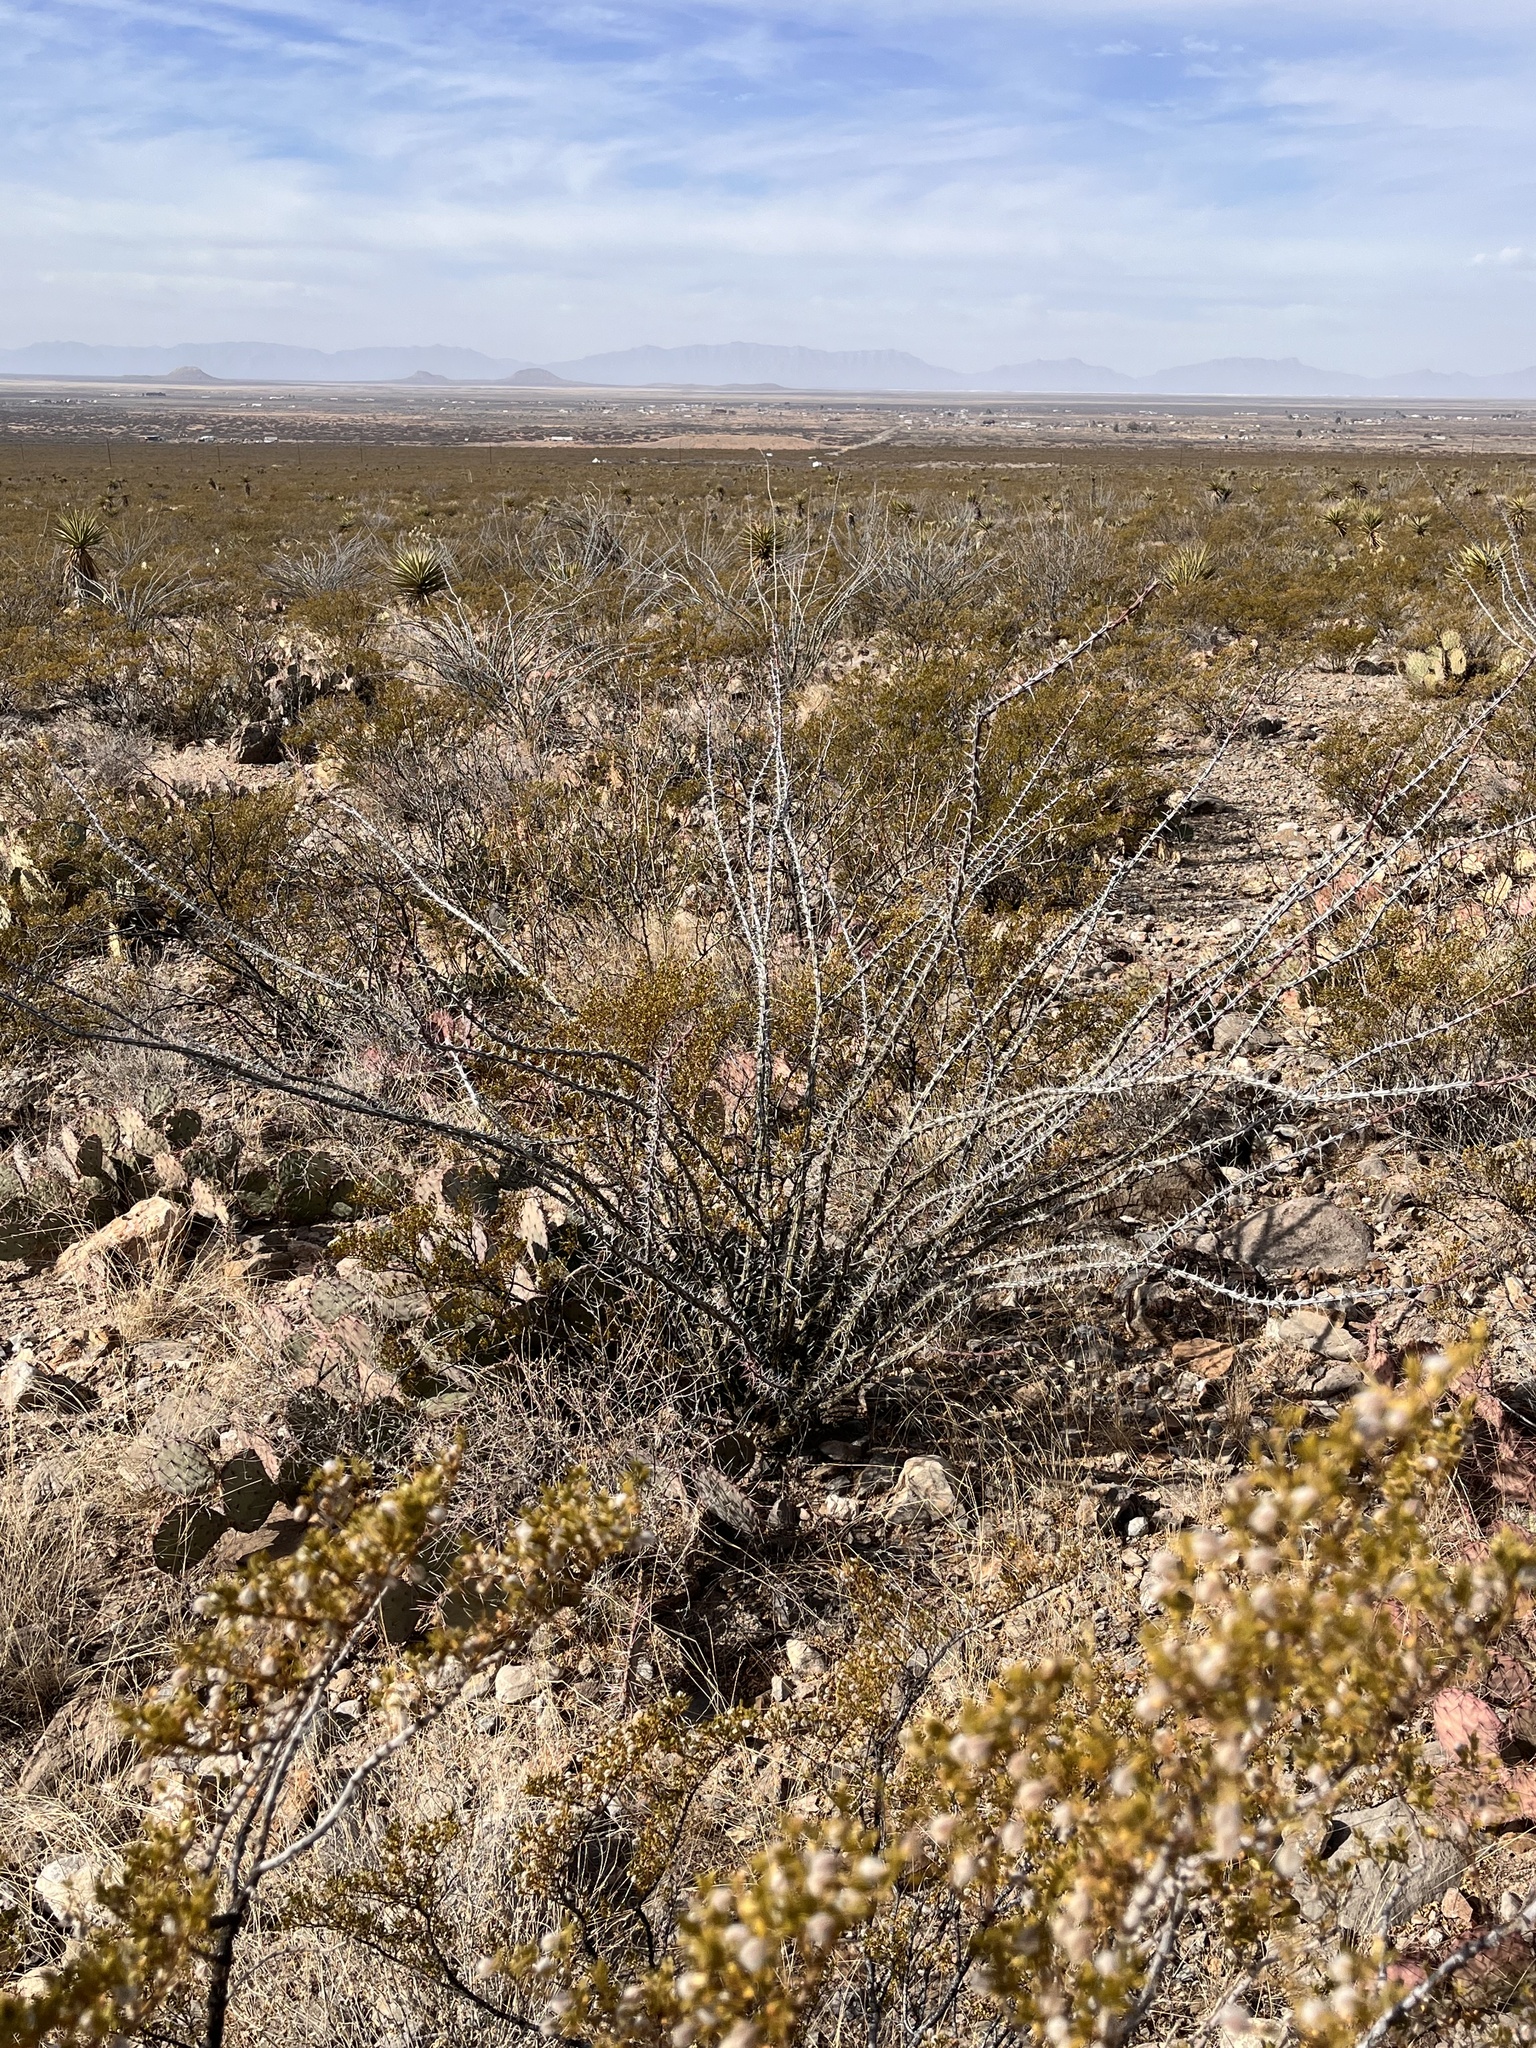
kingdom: Plantae
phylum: Tracheophyta
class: Magnoliopsida
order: Ericales
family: Fouquieriaceae
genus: Fouquieria
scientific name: Fouquieria splendens
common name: Vine-cactus
